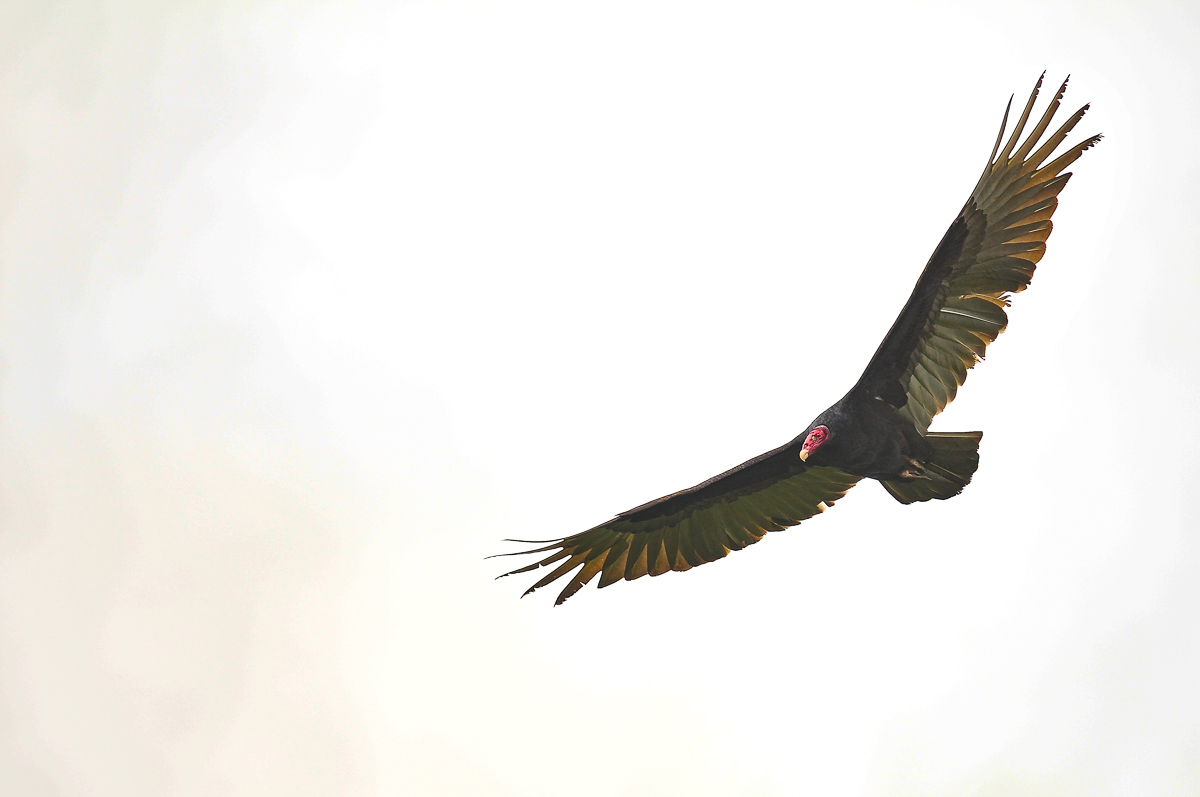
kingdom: Animalia
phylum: Chordata
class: Aves
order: Accipitriformes
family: Cathartidae
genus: Cathartes
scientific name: Cathartes aura
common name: Turkey vulture
